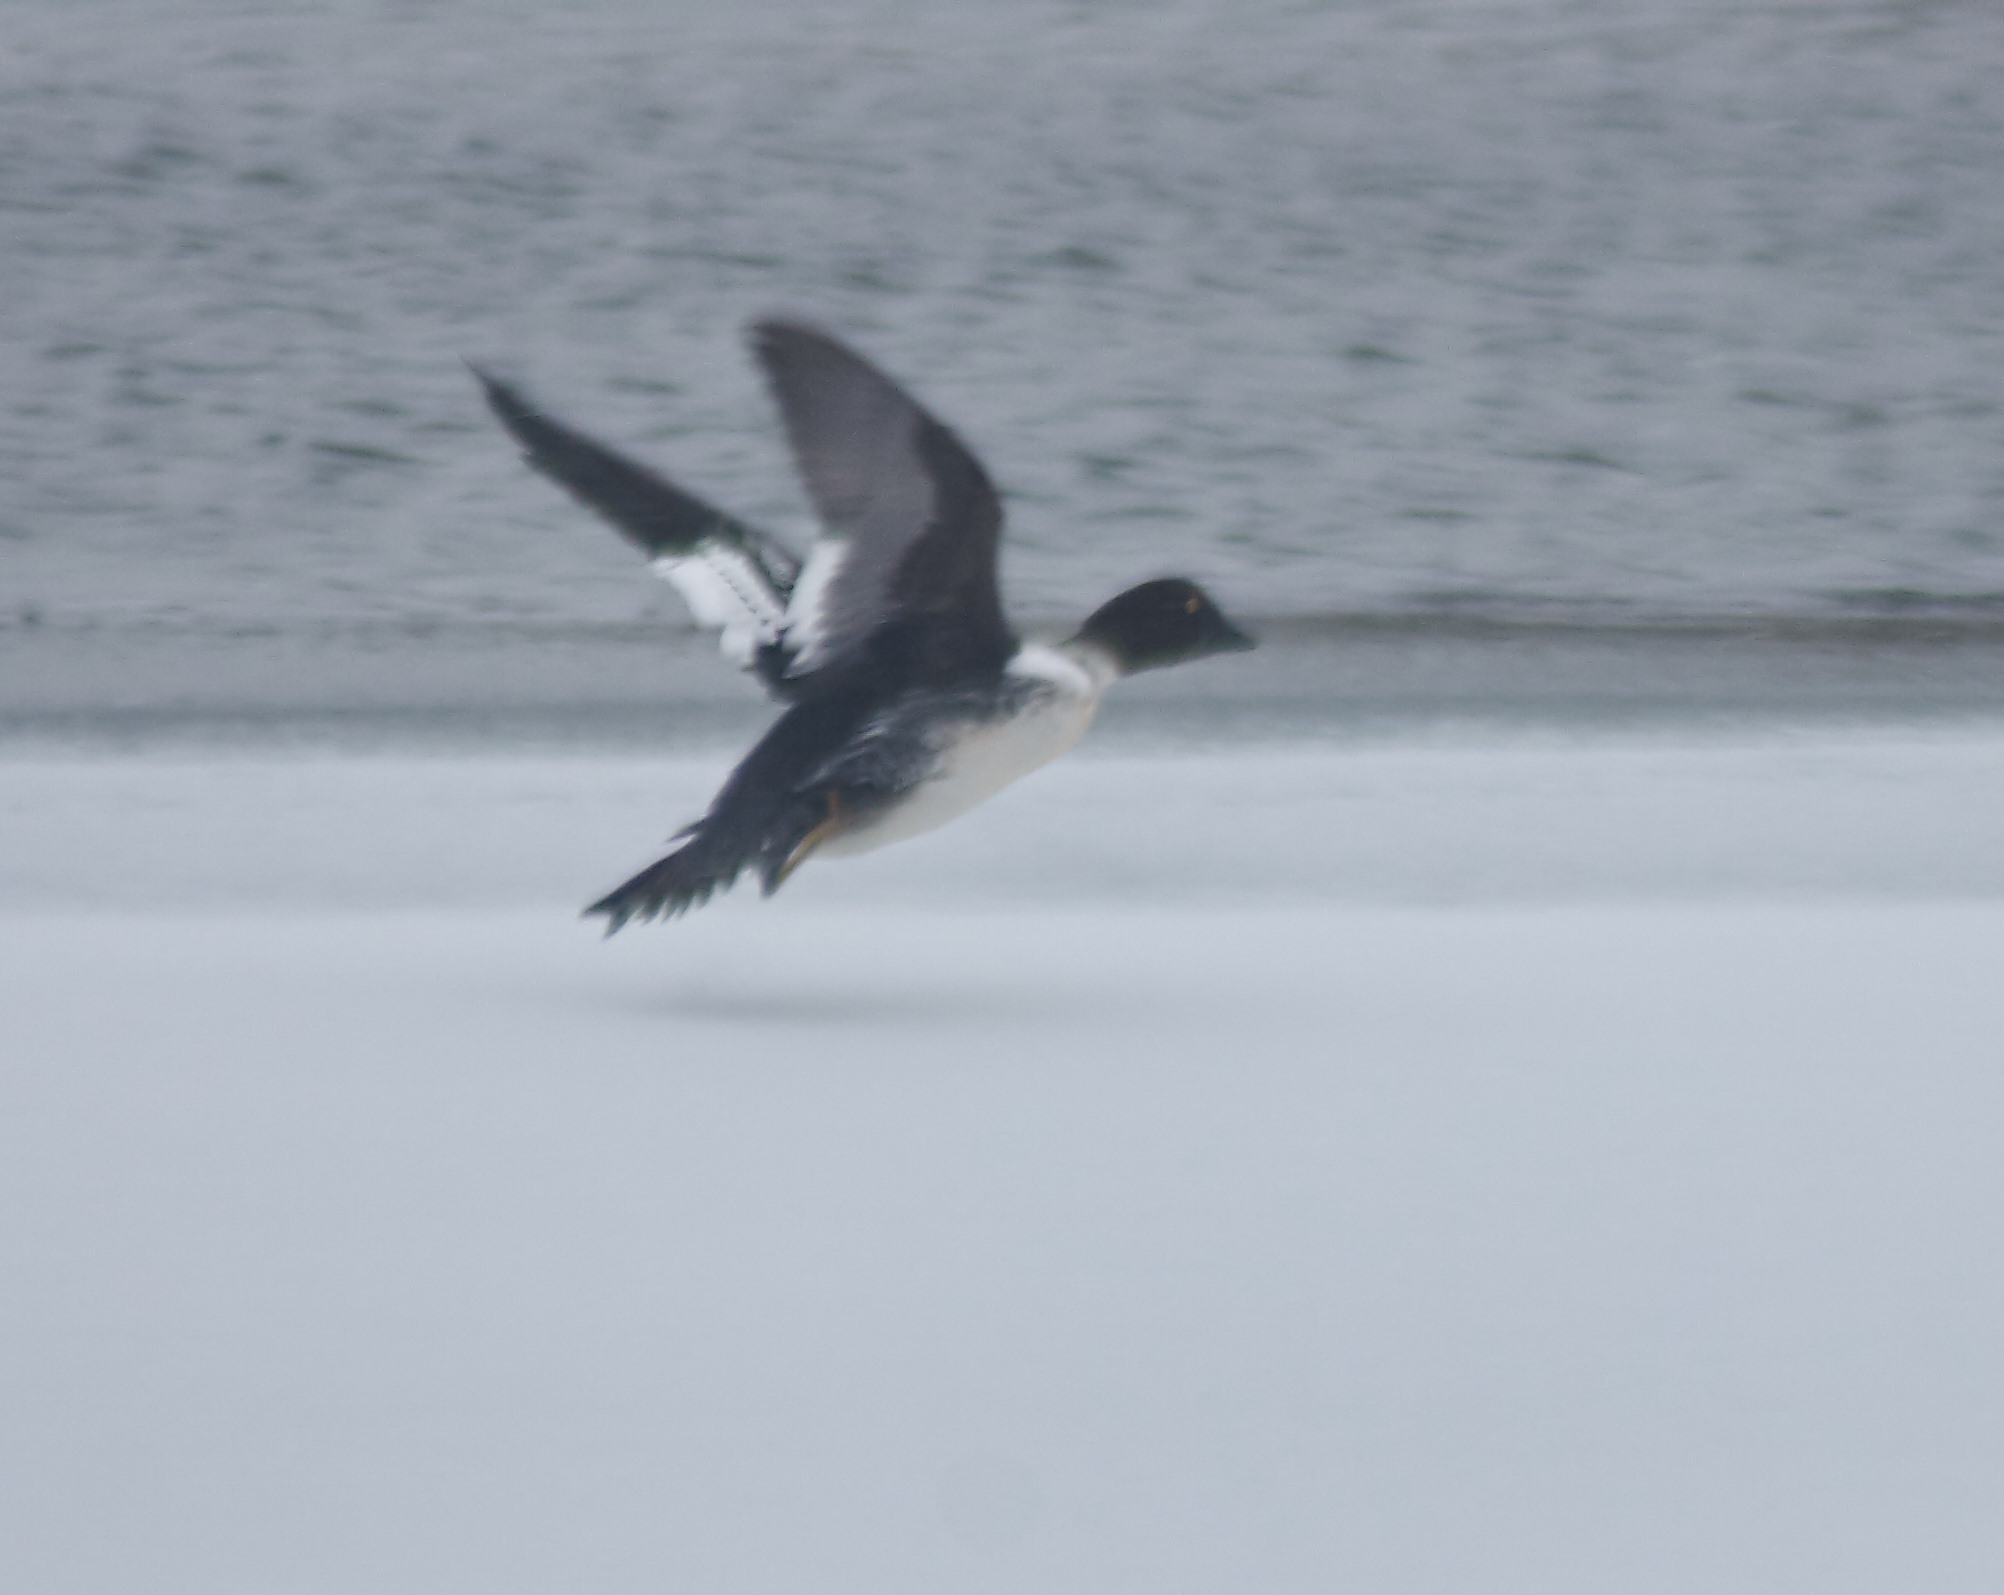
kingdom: Animalia
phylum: Chordata
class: Aves
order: Anseriformes
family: Anatidae
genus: Bucephala
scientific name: Bucephala clangula
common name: Common goldeneye
